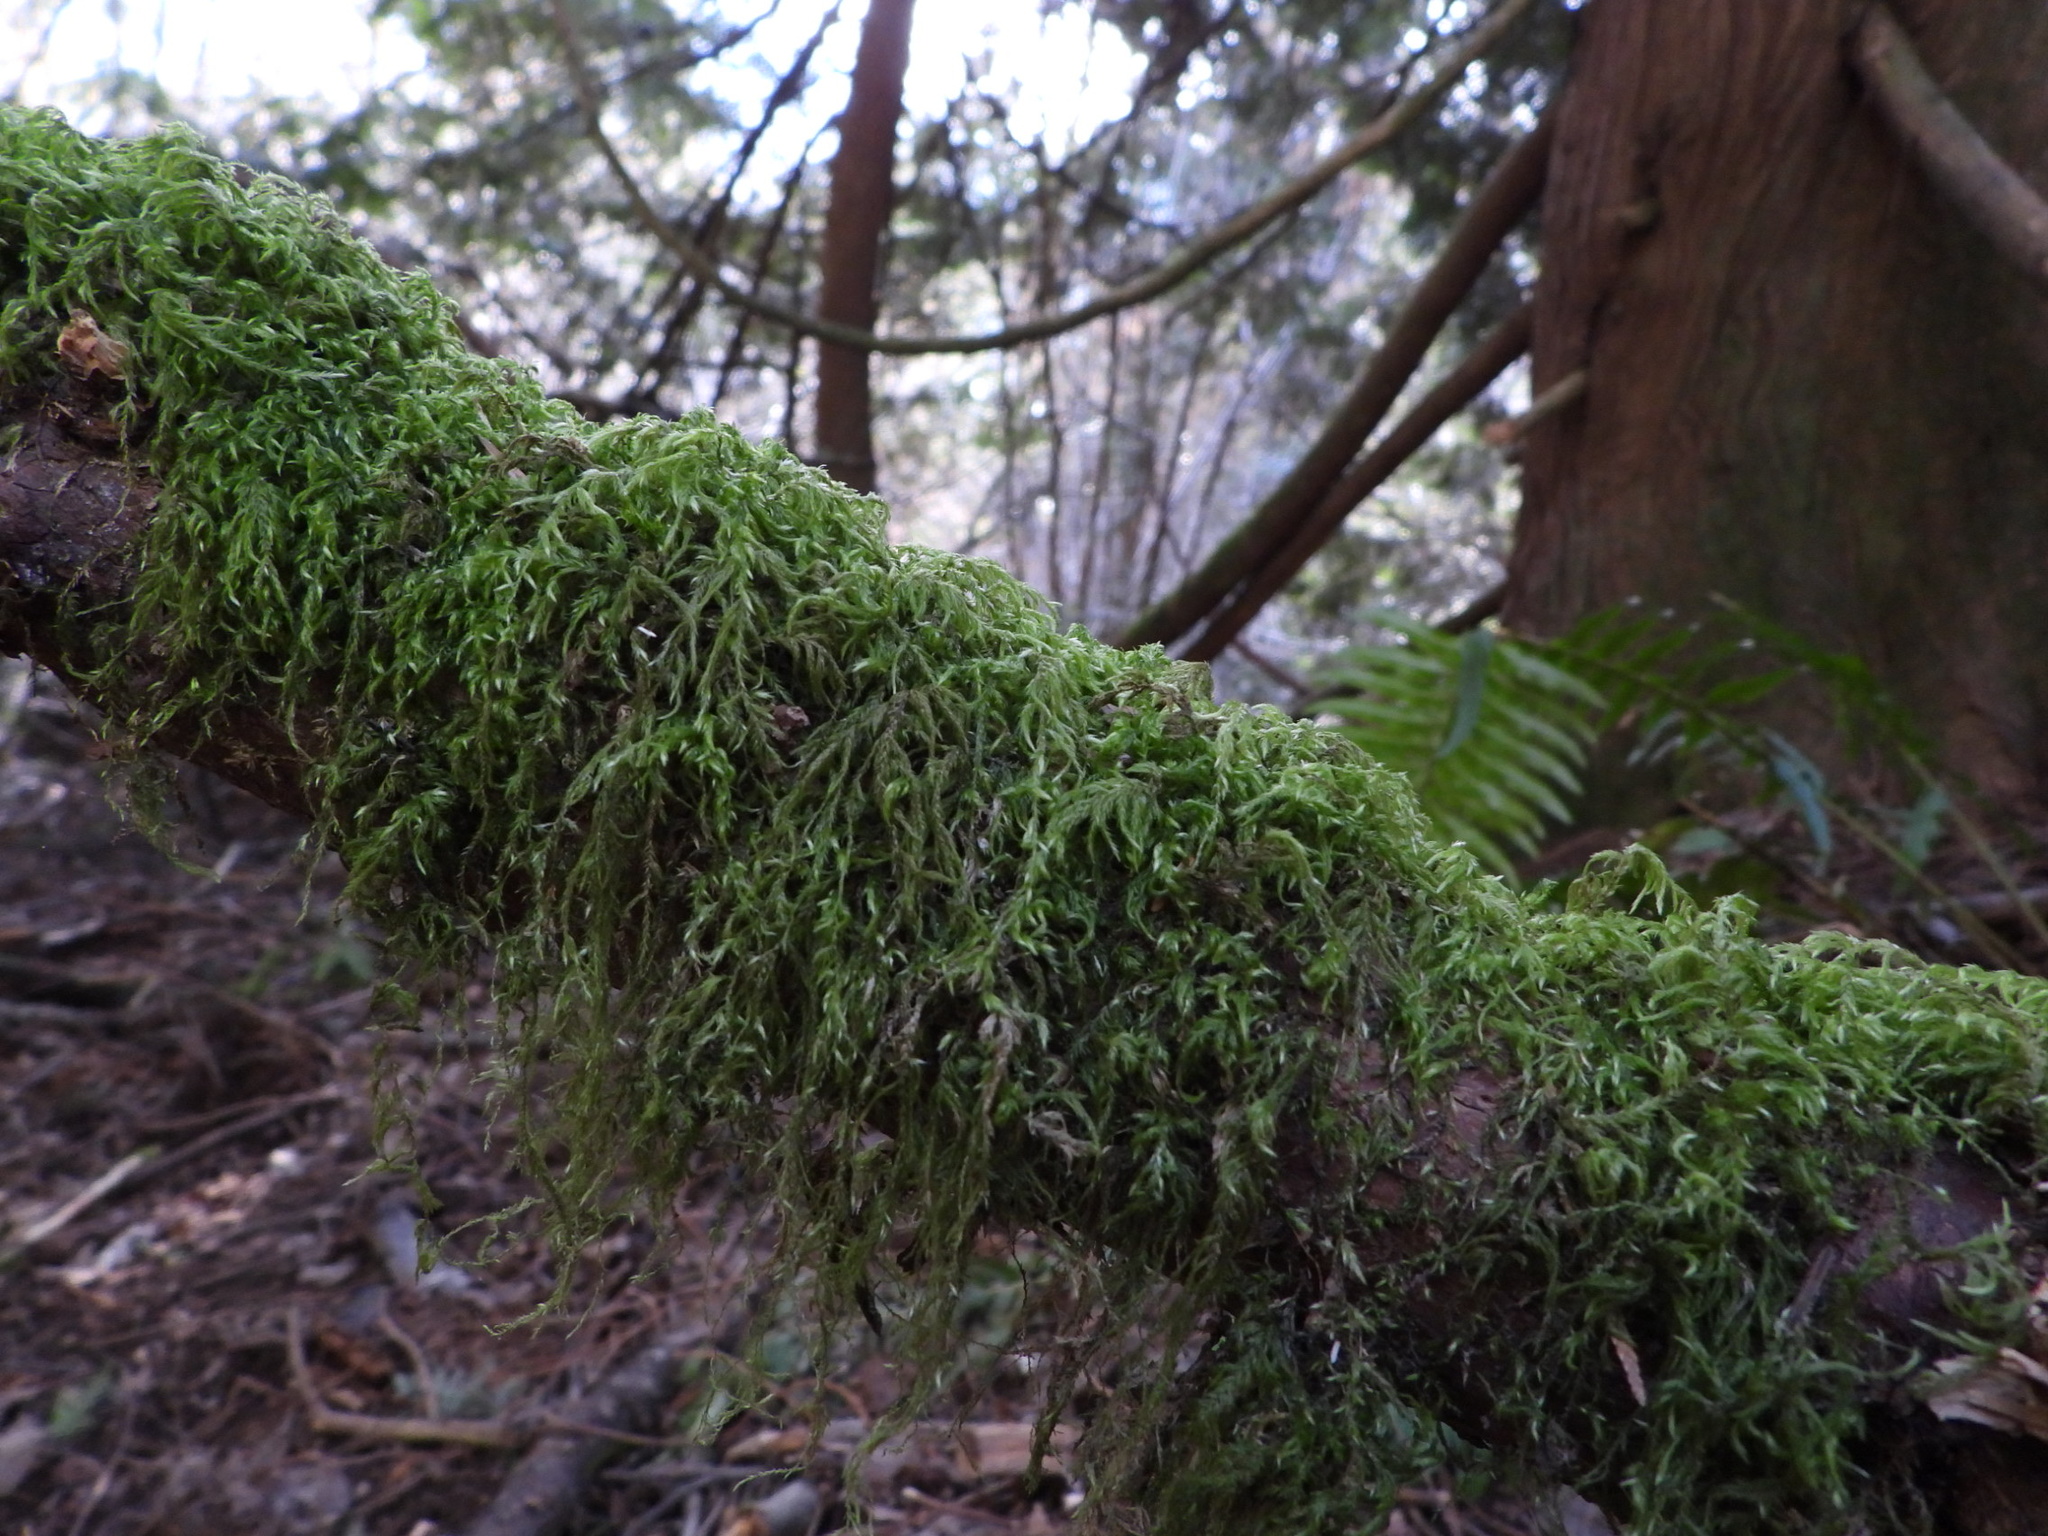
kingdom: Plantae
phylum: Bryophyta
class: Bryopsida
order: Hypnales
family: Lembophyllaceae
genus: Pseudisothecium
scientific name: Pseudisothecium stoloniferum
